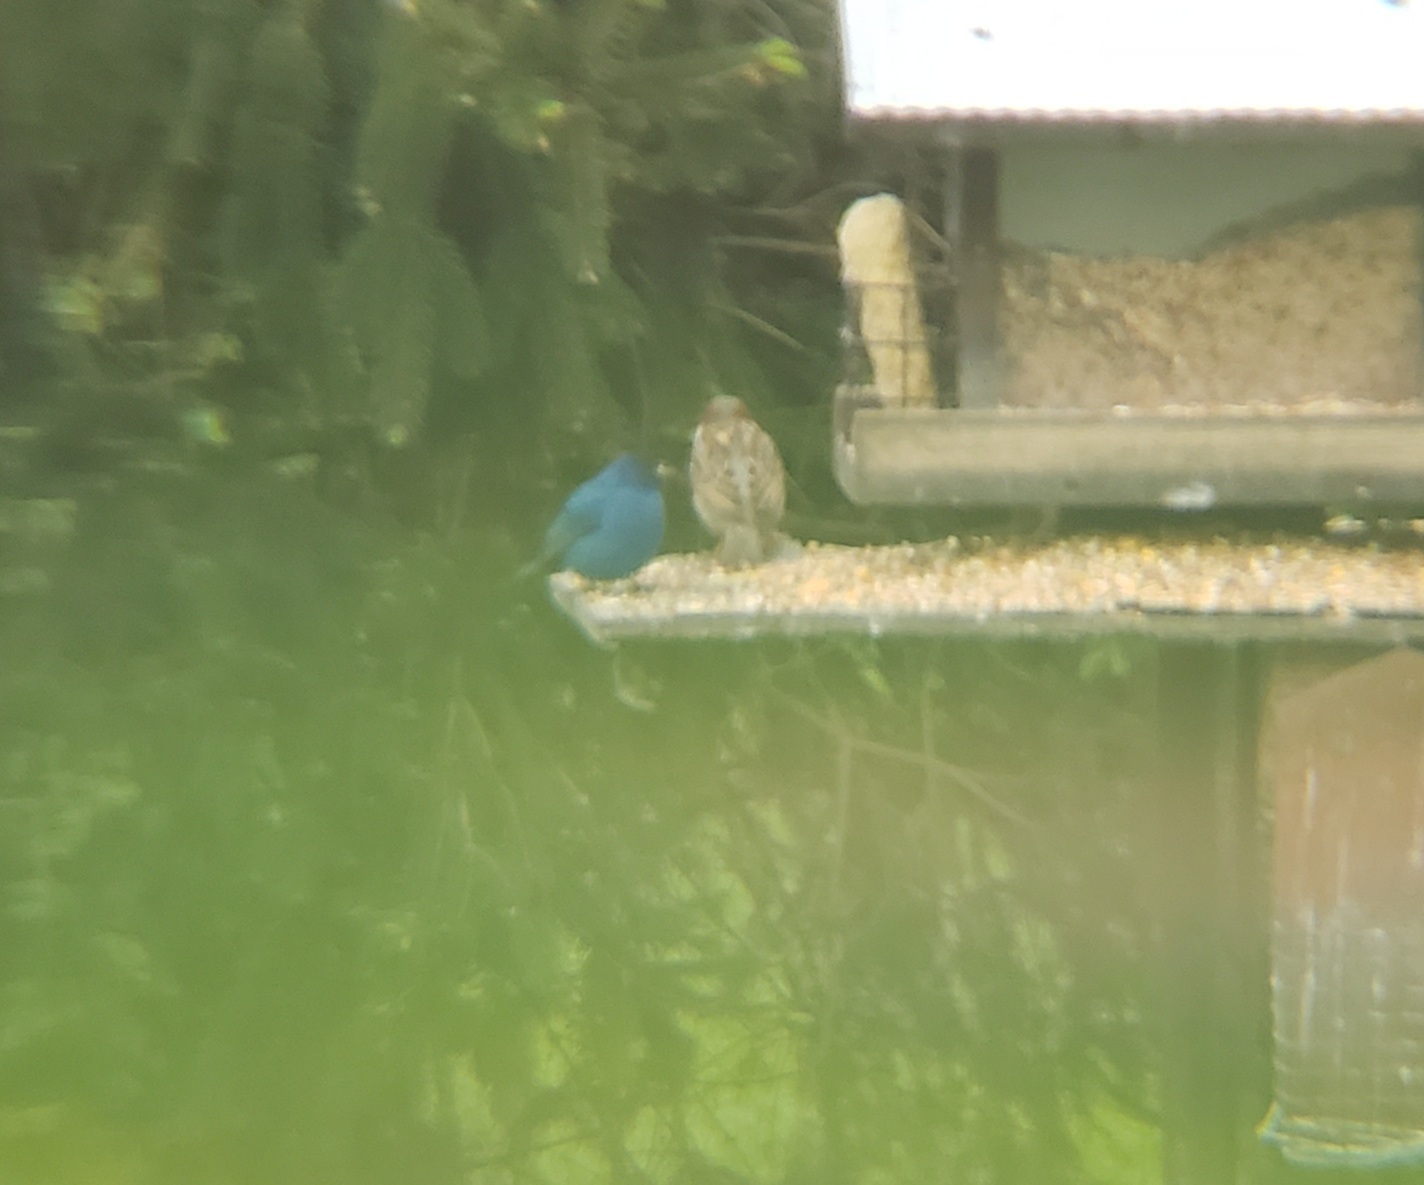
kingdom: Animalia
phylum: Chordata
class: Aves
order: Passeriformes
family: Cardinalidae
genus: Passerina
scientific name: Passerina cyanea
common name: Indigo bunting
